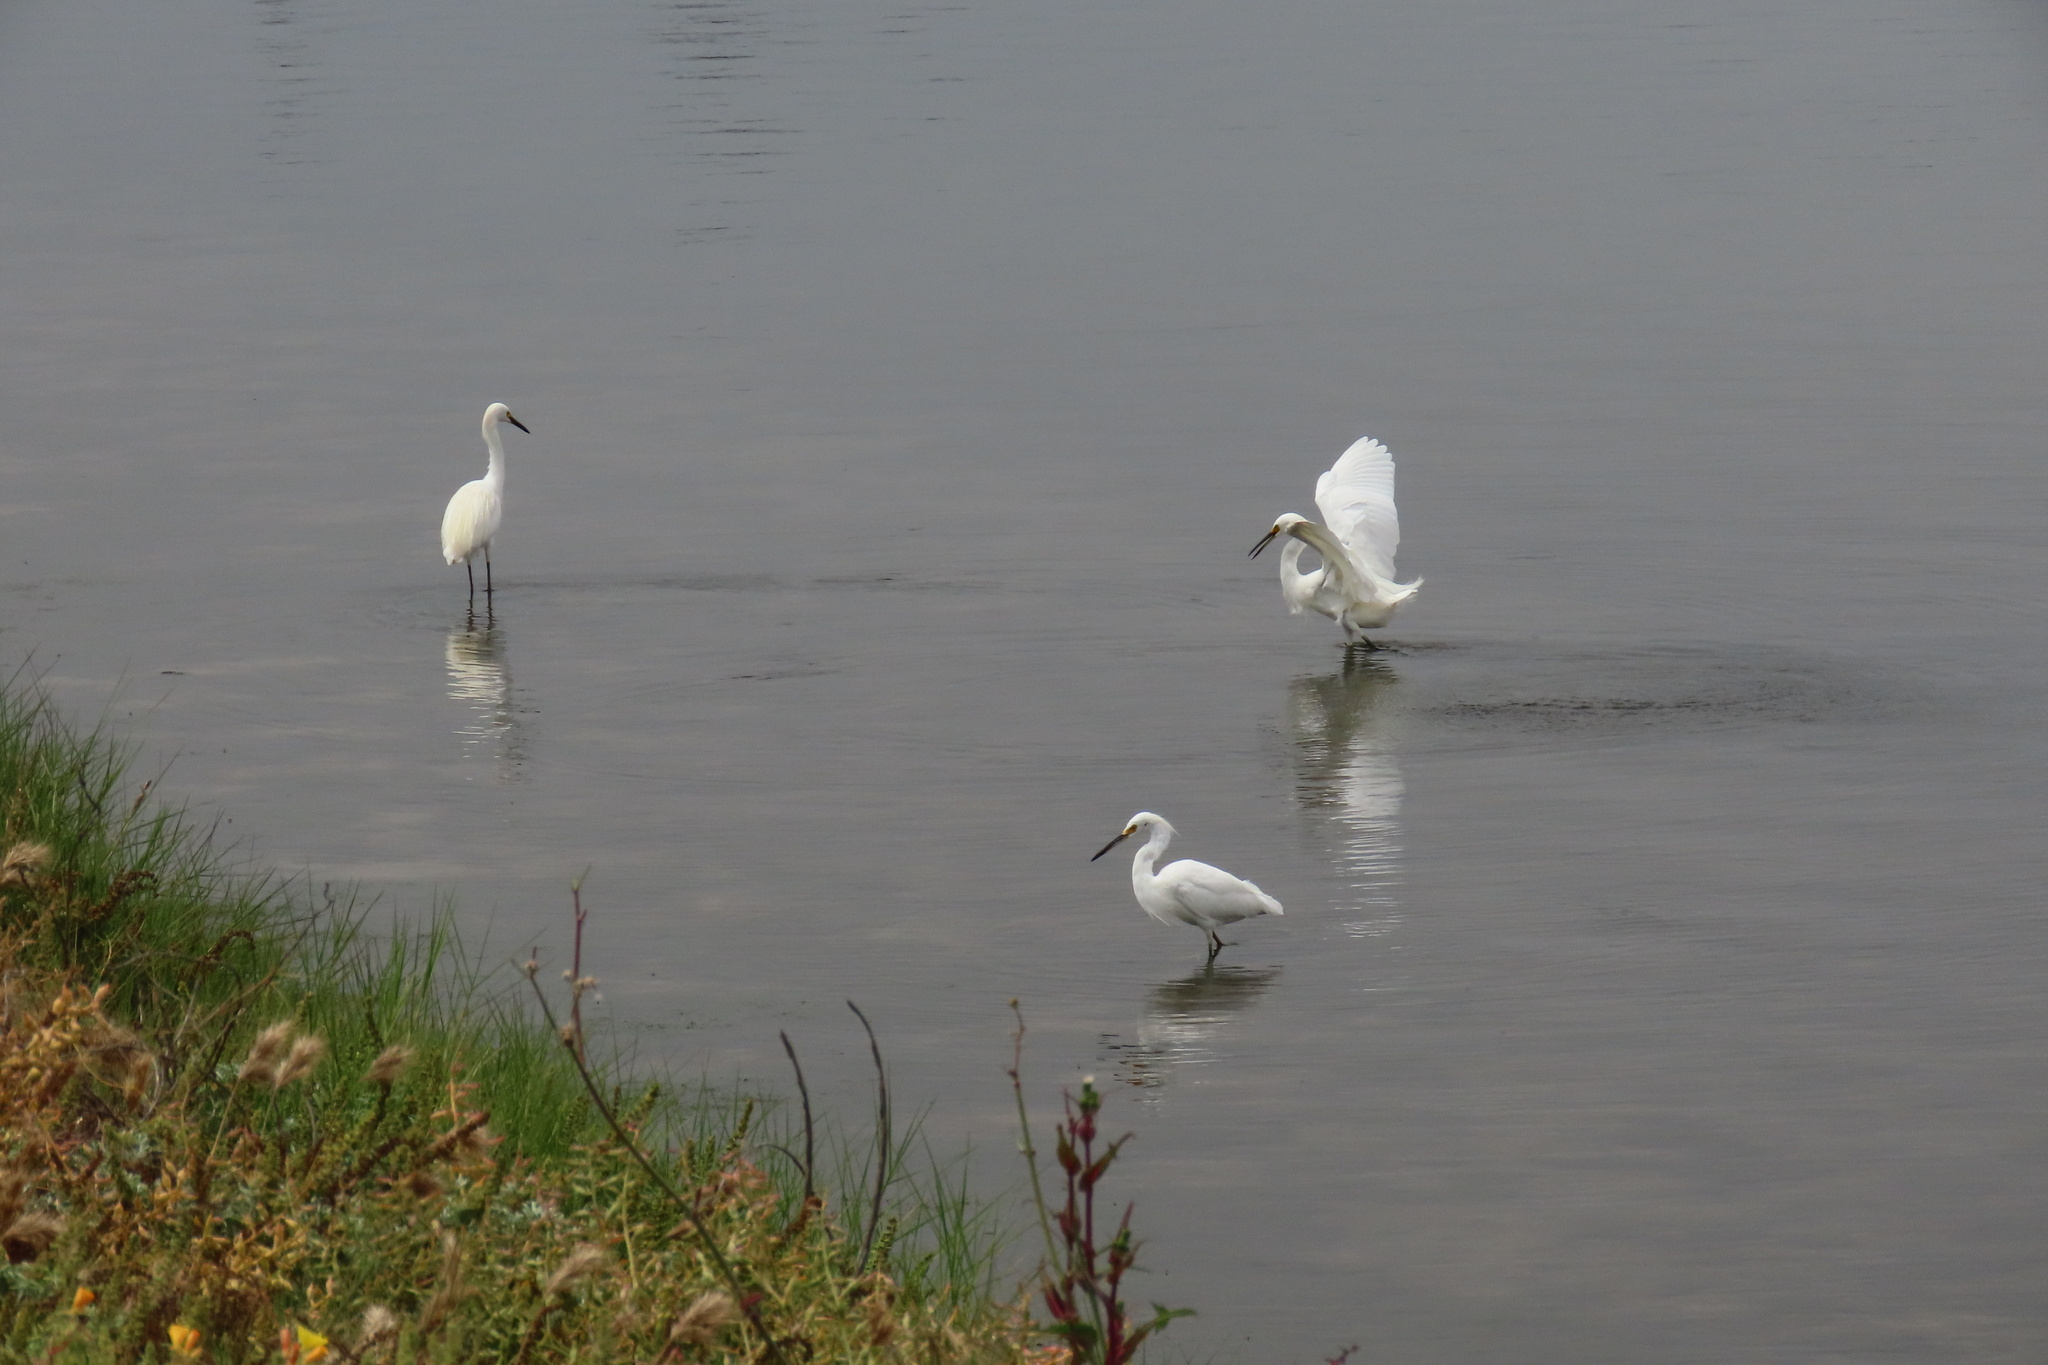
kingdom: Animalia
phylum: Chordata
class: Aves
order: Pelecaniformes
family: Ardeidae
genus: Egretta
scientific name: Egretta thula
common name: Snowy egret
